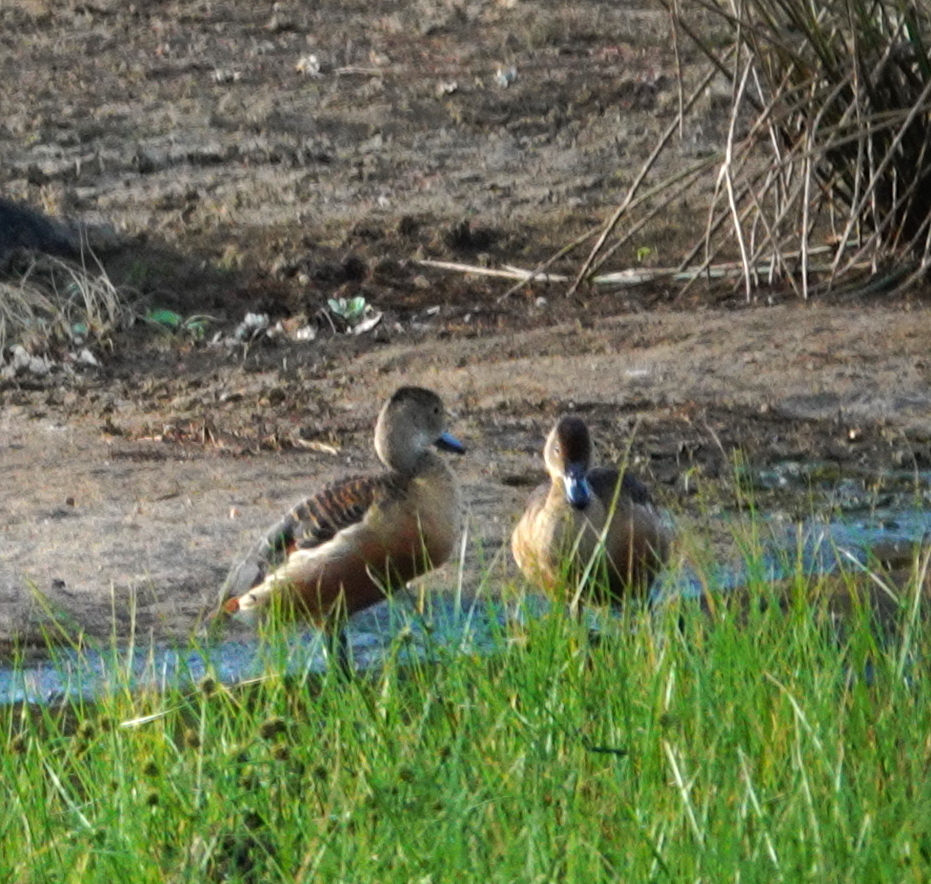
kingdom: Animalia
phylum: Chordata
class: Aves
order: Anseriformes
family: Anatidae
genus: Dendrocygna
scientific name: Dendrocygna javanica
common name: Lesser whistling-duck
